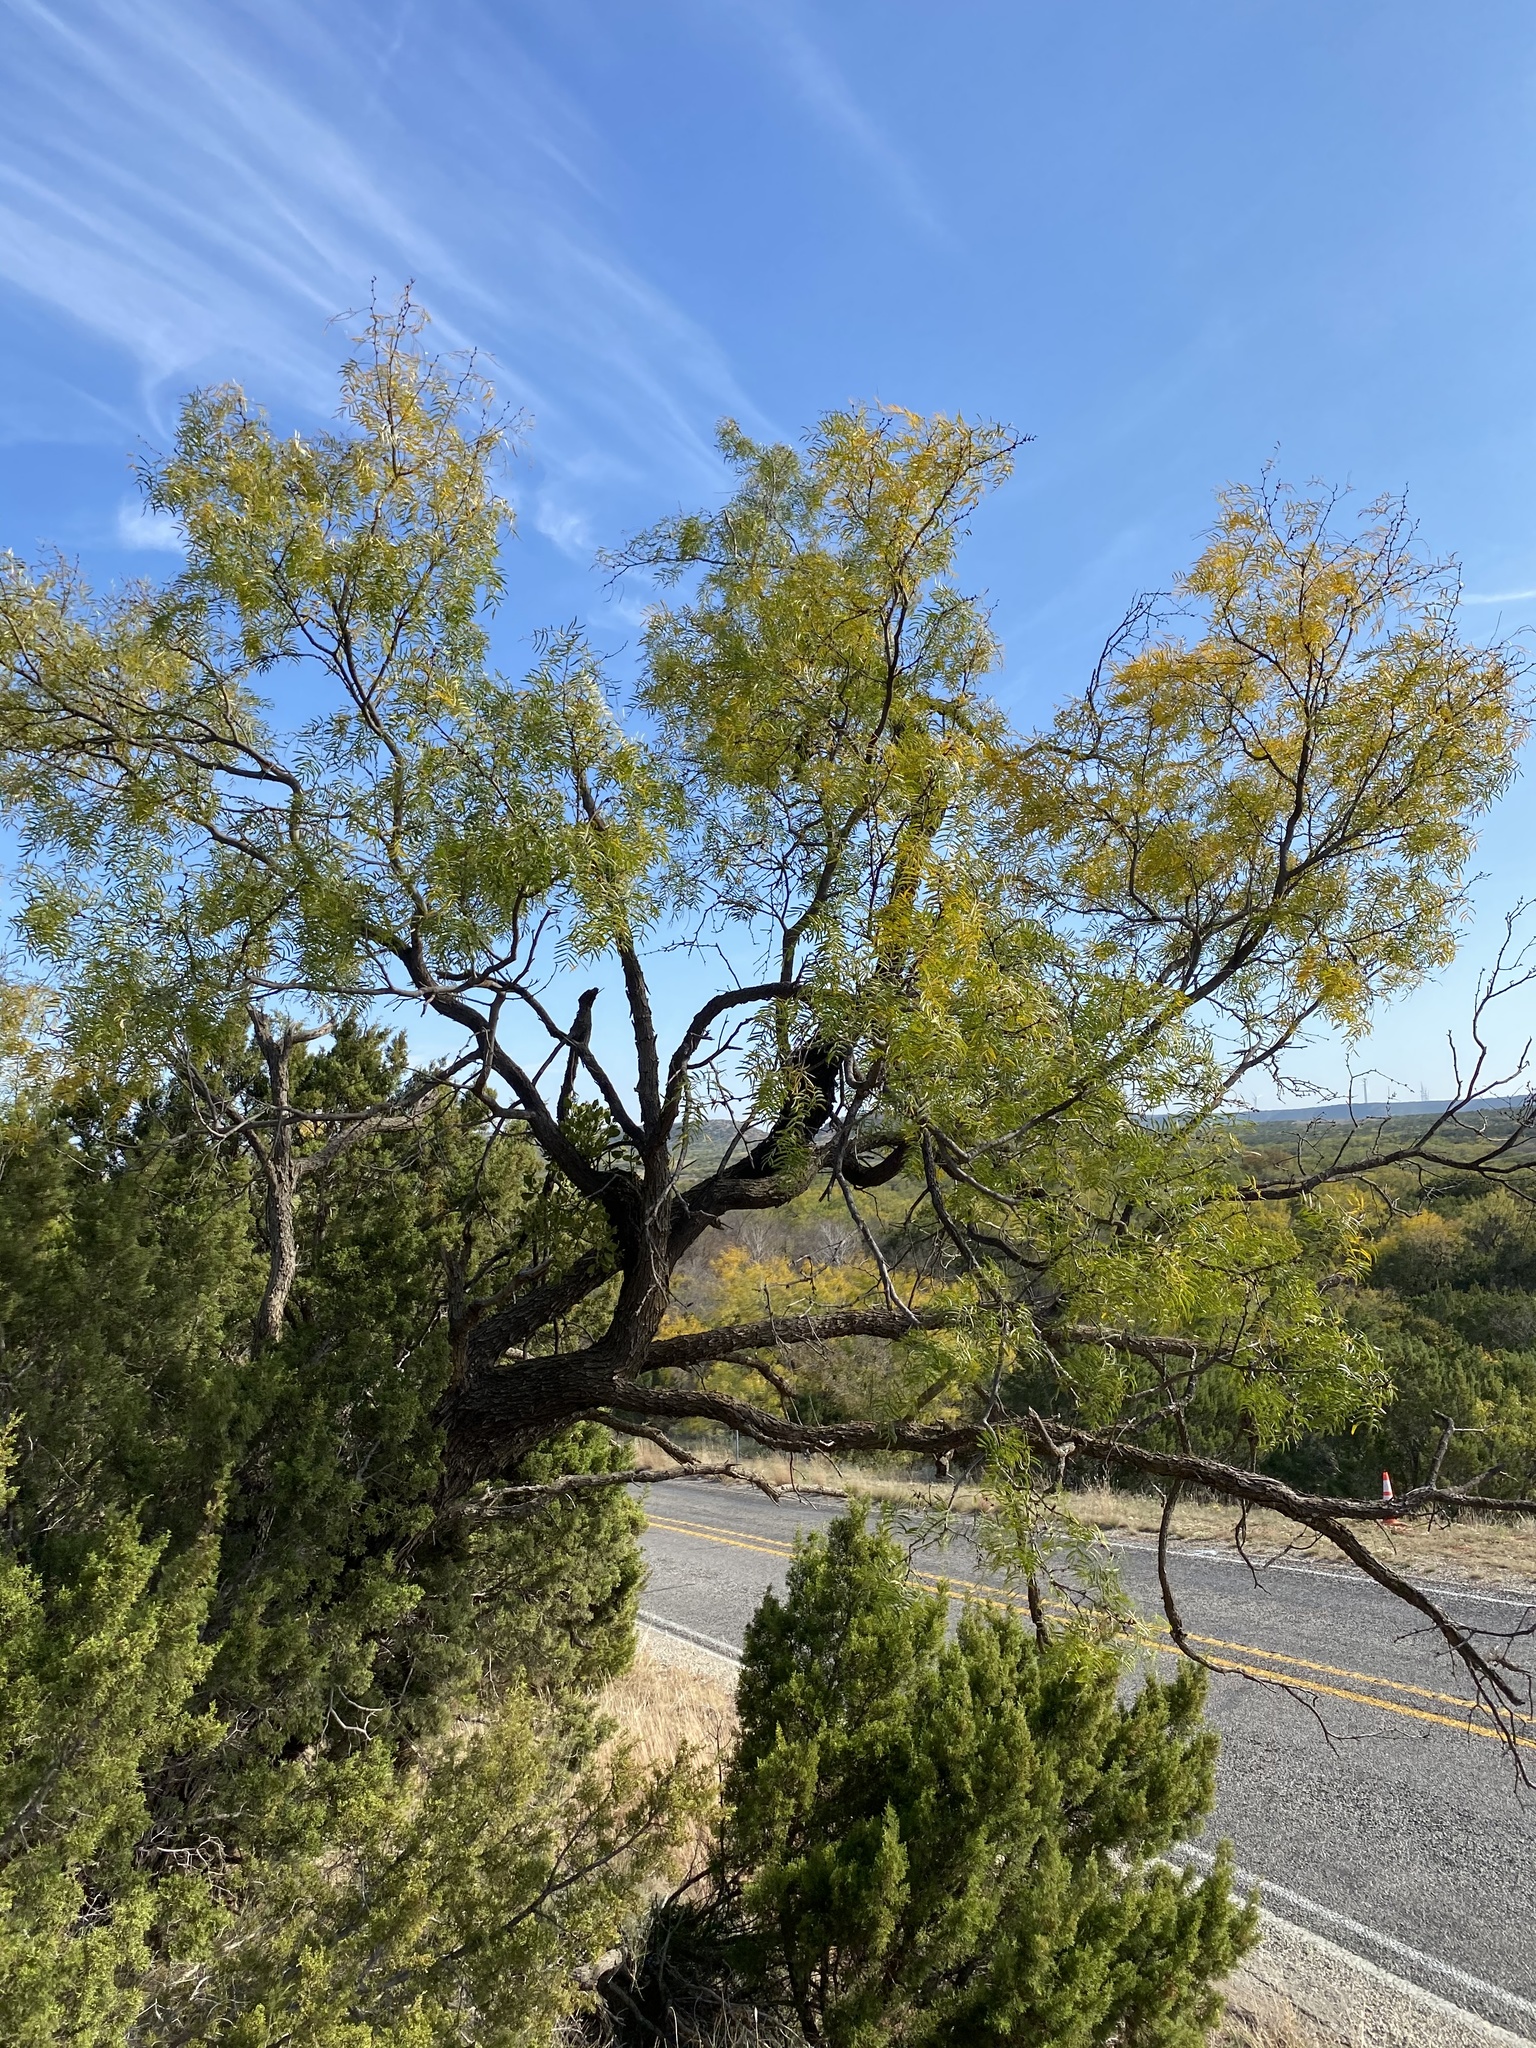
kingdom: Plantae
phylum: Tracheophyta
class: Magnoliopsida
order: Fabales
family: Fabaceae
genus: Prosopis
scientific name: Prosopis glandulosa
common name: Honey mesquite
